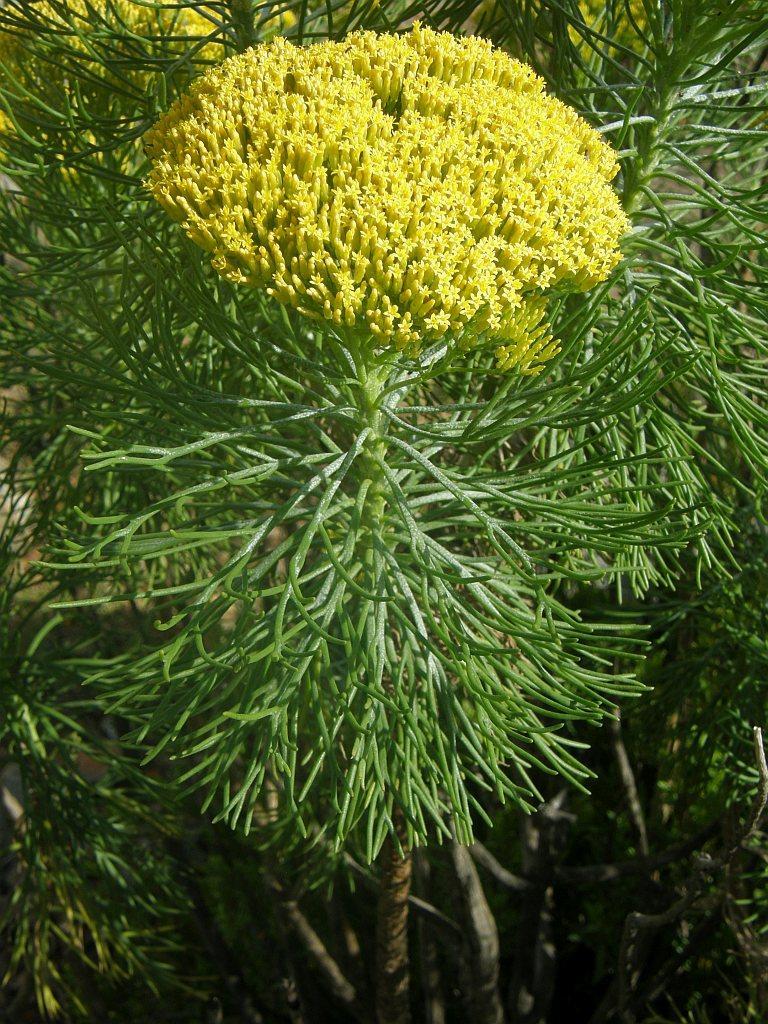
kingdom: Plantae
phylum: Tracheophyta
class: Magnoliopsida
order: Asterales
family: Asteraceae
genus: Hymenolepis
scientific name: Hymenolepis crithmifolia
